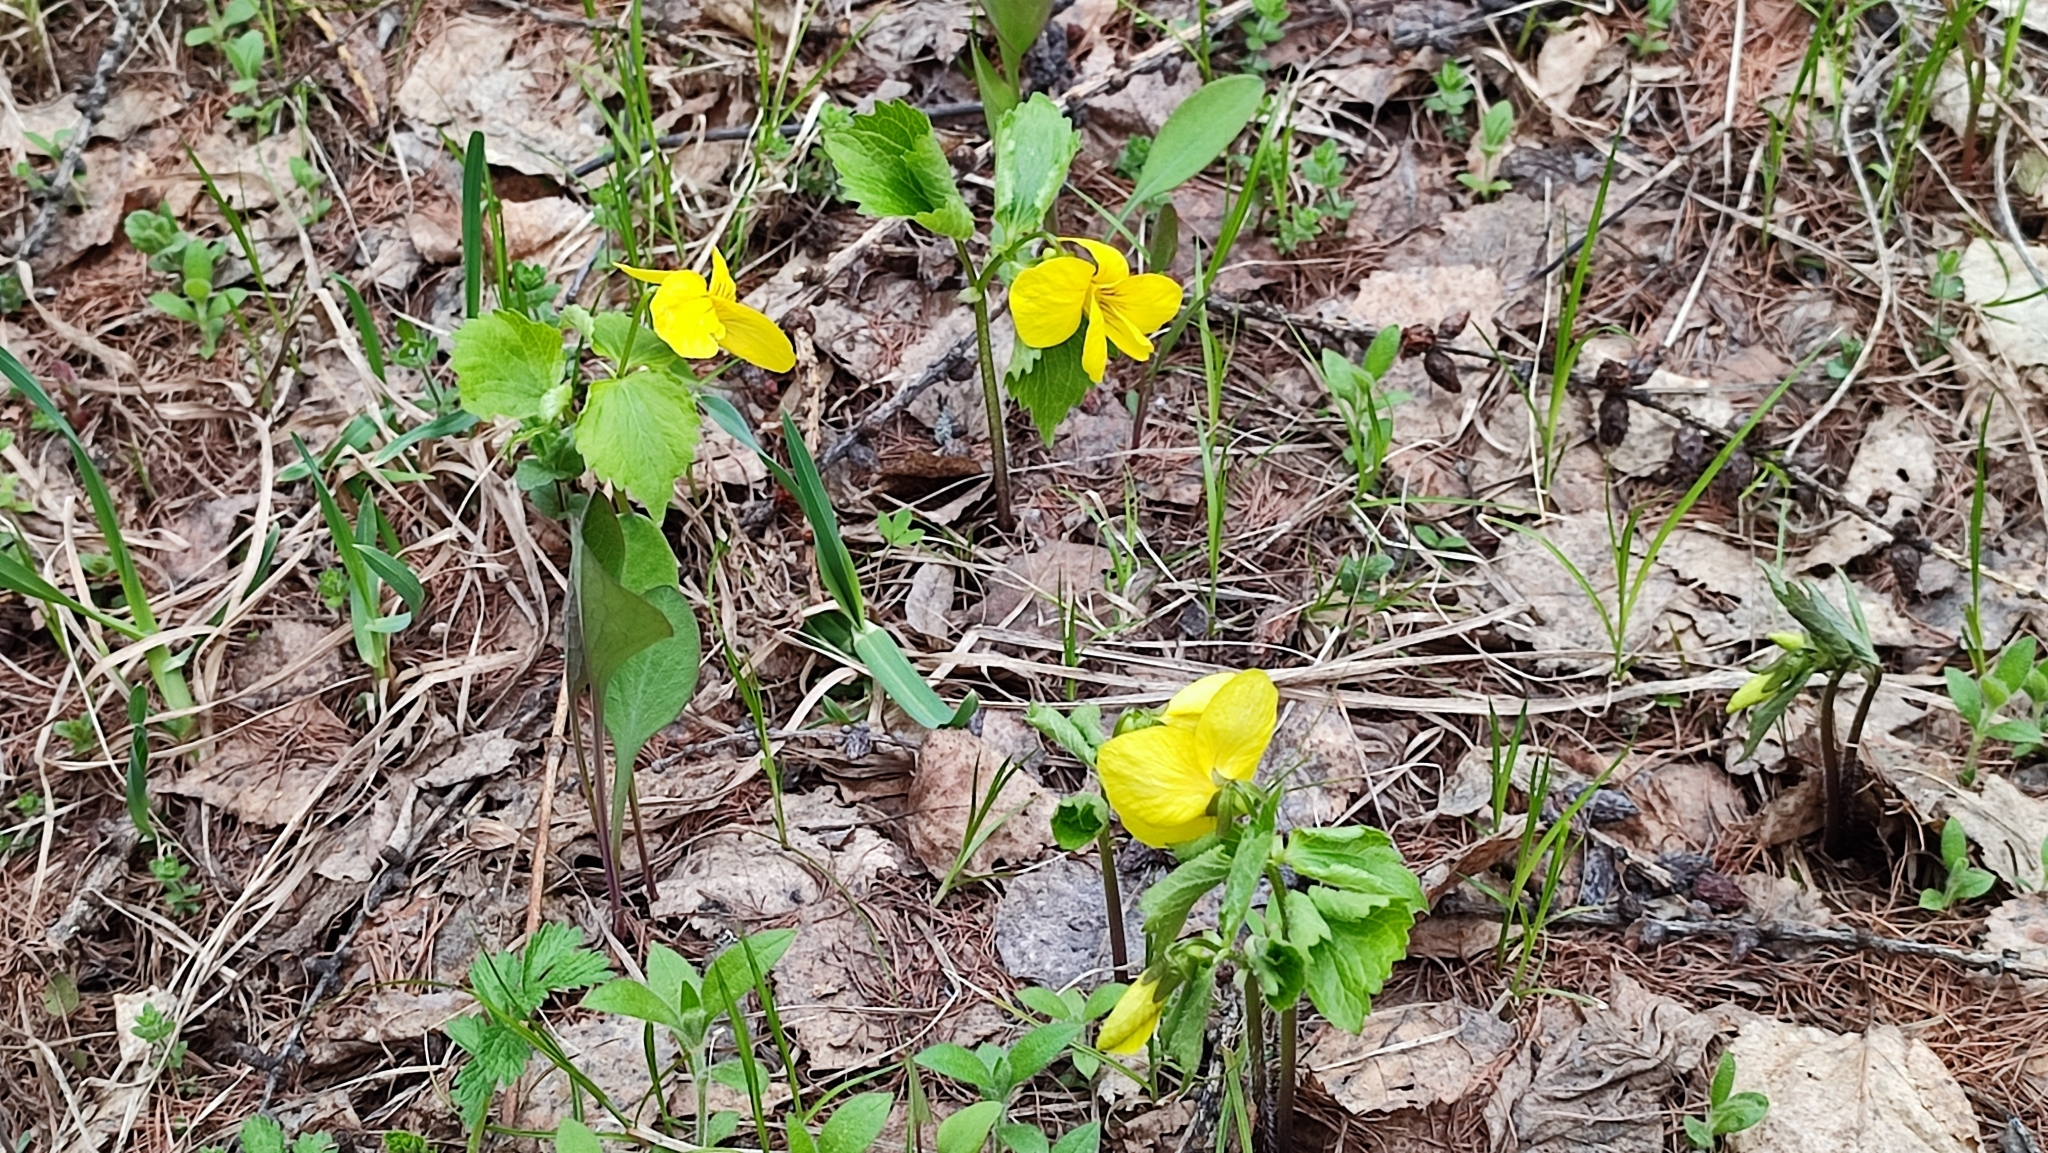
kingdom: Plantae
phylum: Tracheophyta
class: Magnoliopsida
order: Malpighiales
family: Violaceae
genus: Viola
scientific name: Viola uniflora
